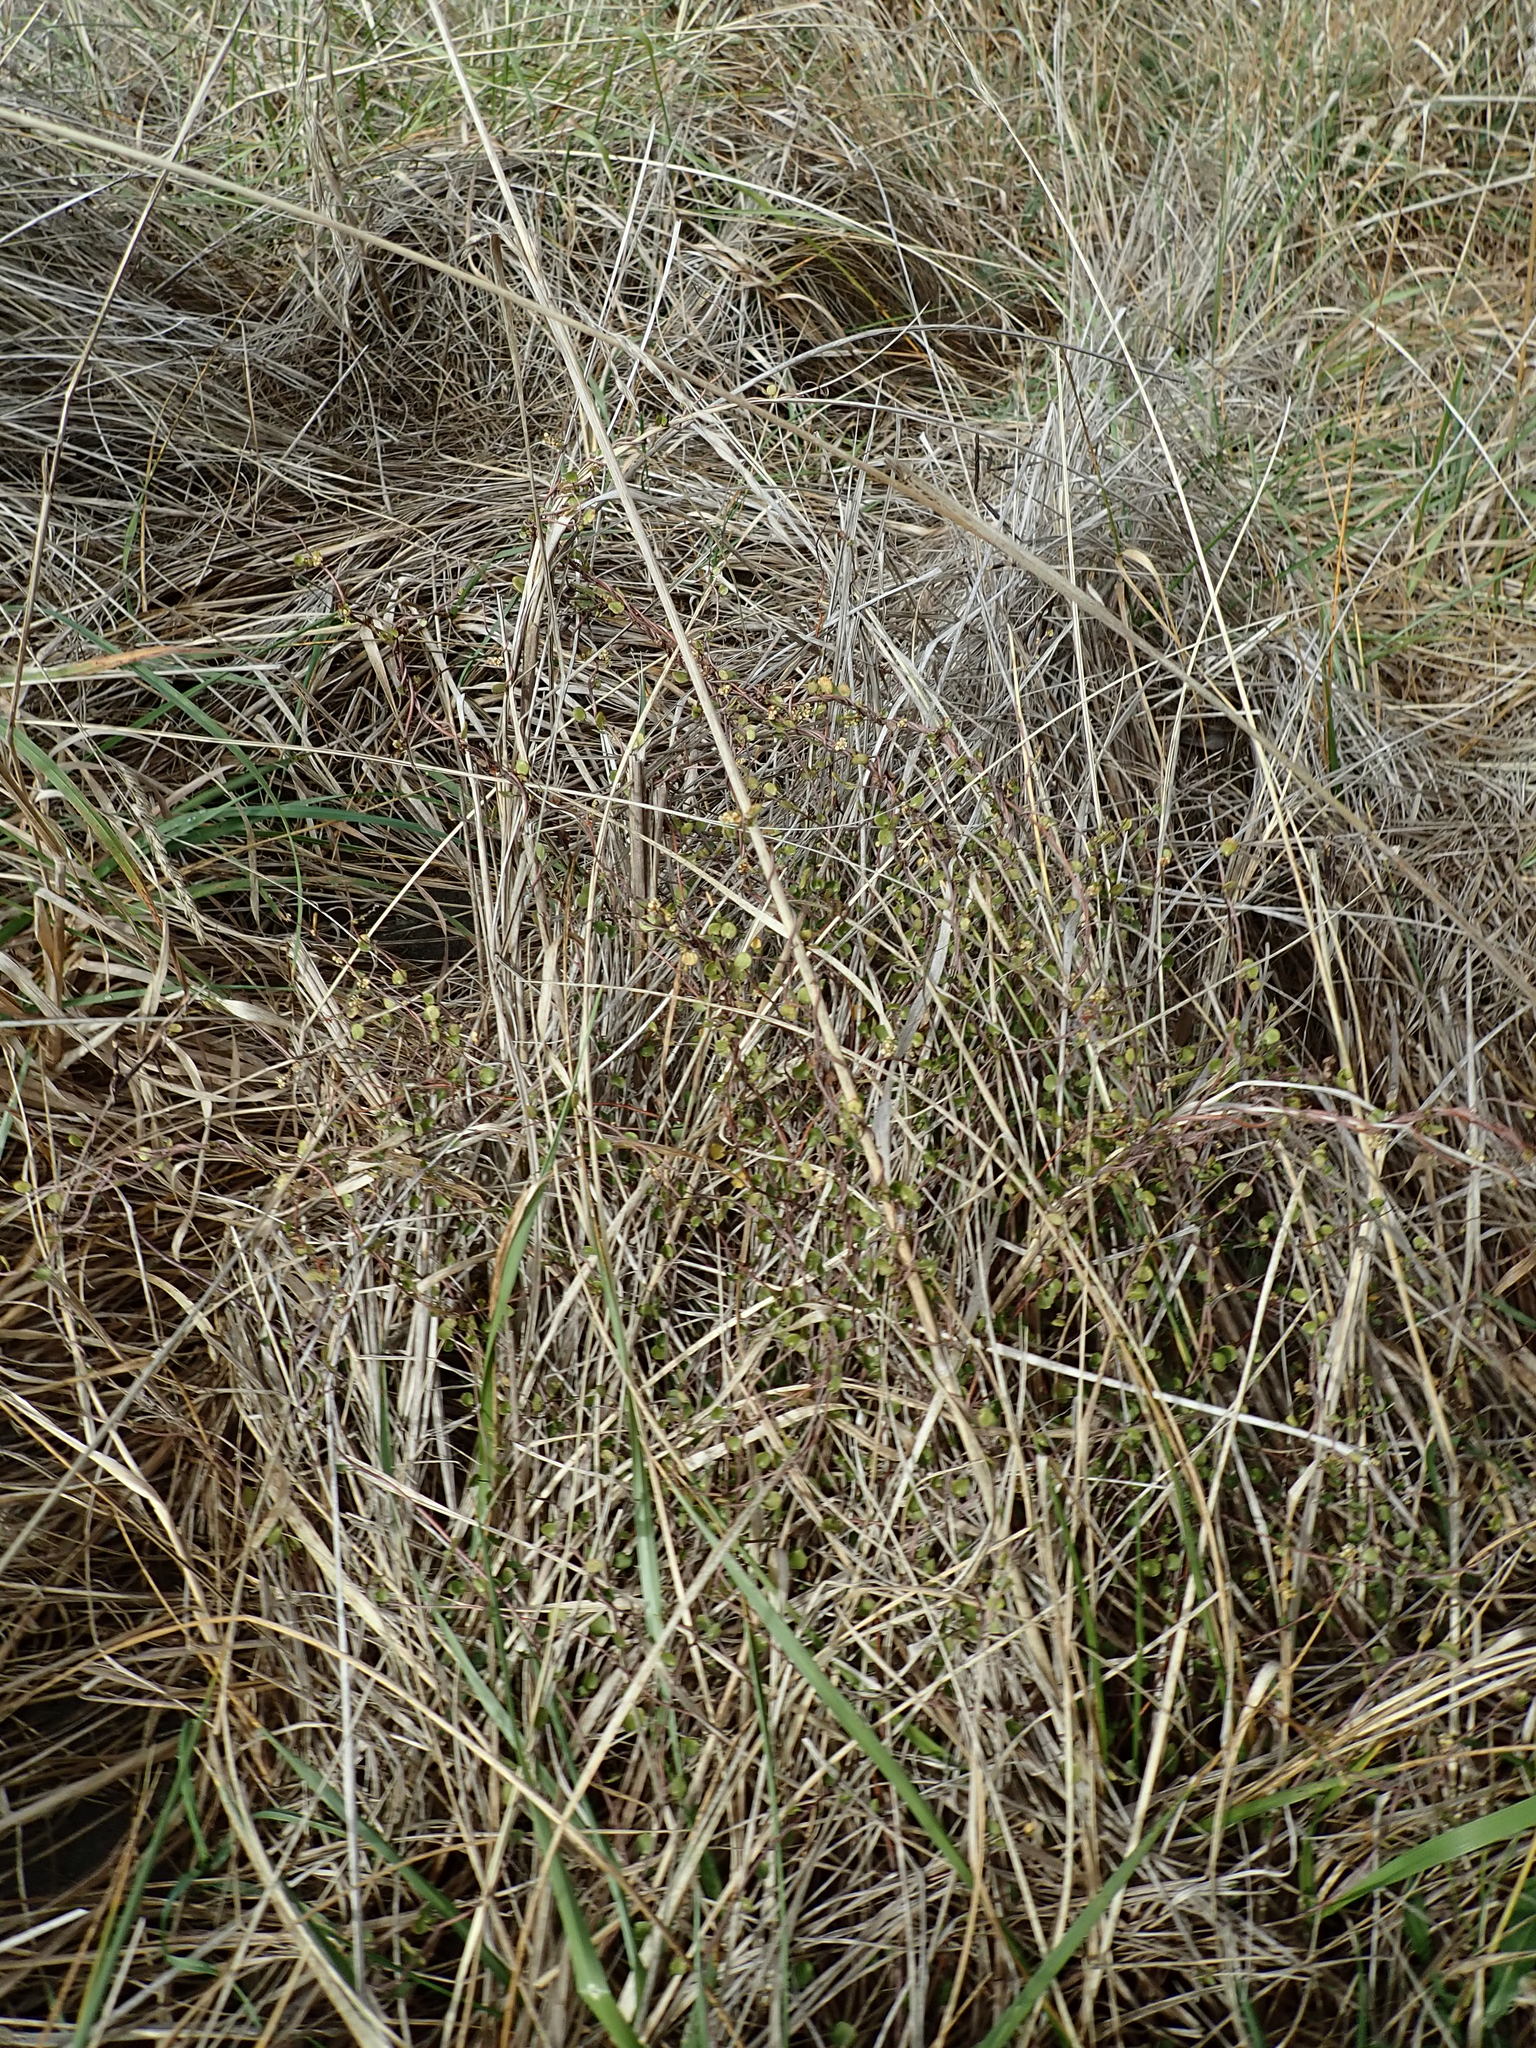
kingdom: Plantae
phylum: Tracheophyta
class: Magnoliopsida
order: Caryophyllales
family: Polygonaceae
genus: Muehlenbeckia
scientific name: Muehlenbeckia complexa
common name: Wireplant
